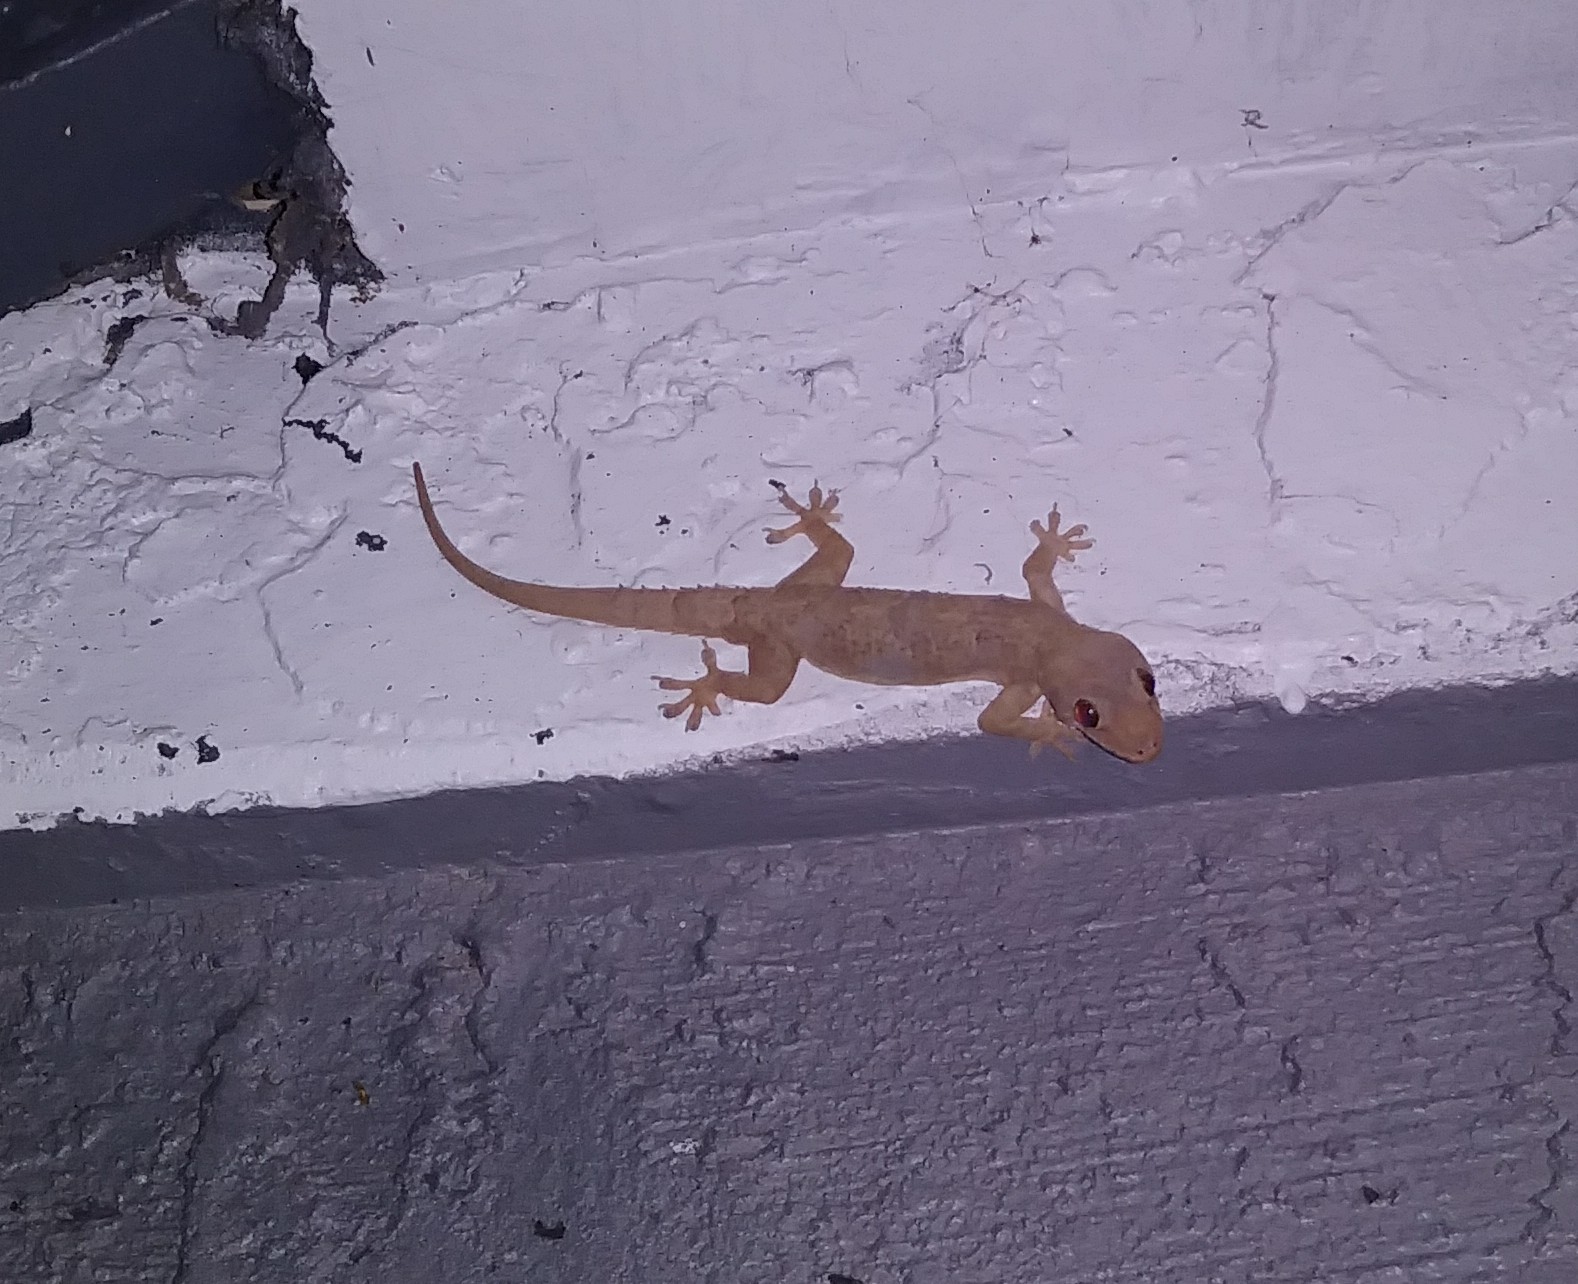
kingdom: Animalia
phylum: Chordata
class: Squamata
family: Gekkonidae
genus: Hemidactylus
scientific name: Hemidactylus mabouia
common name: House gecko
